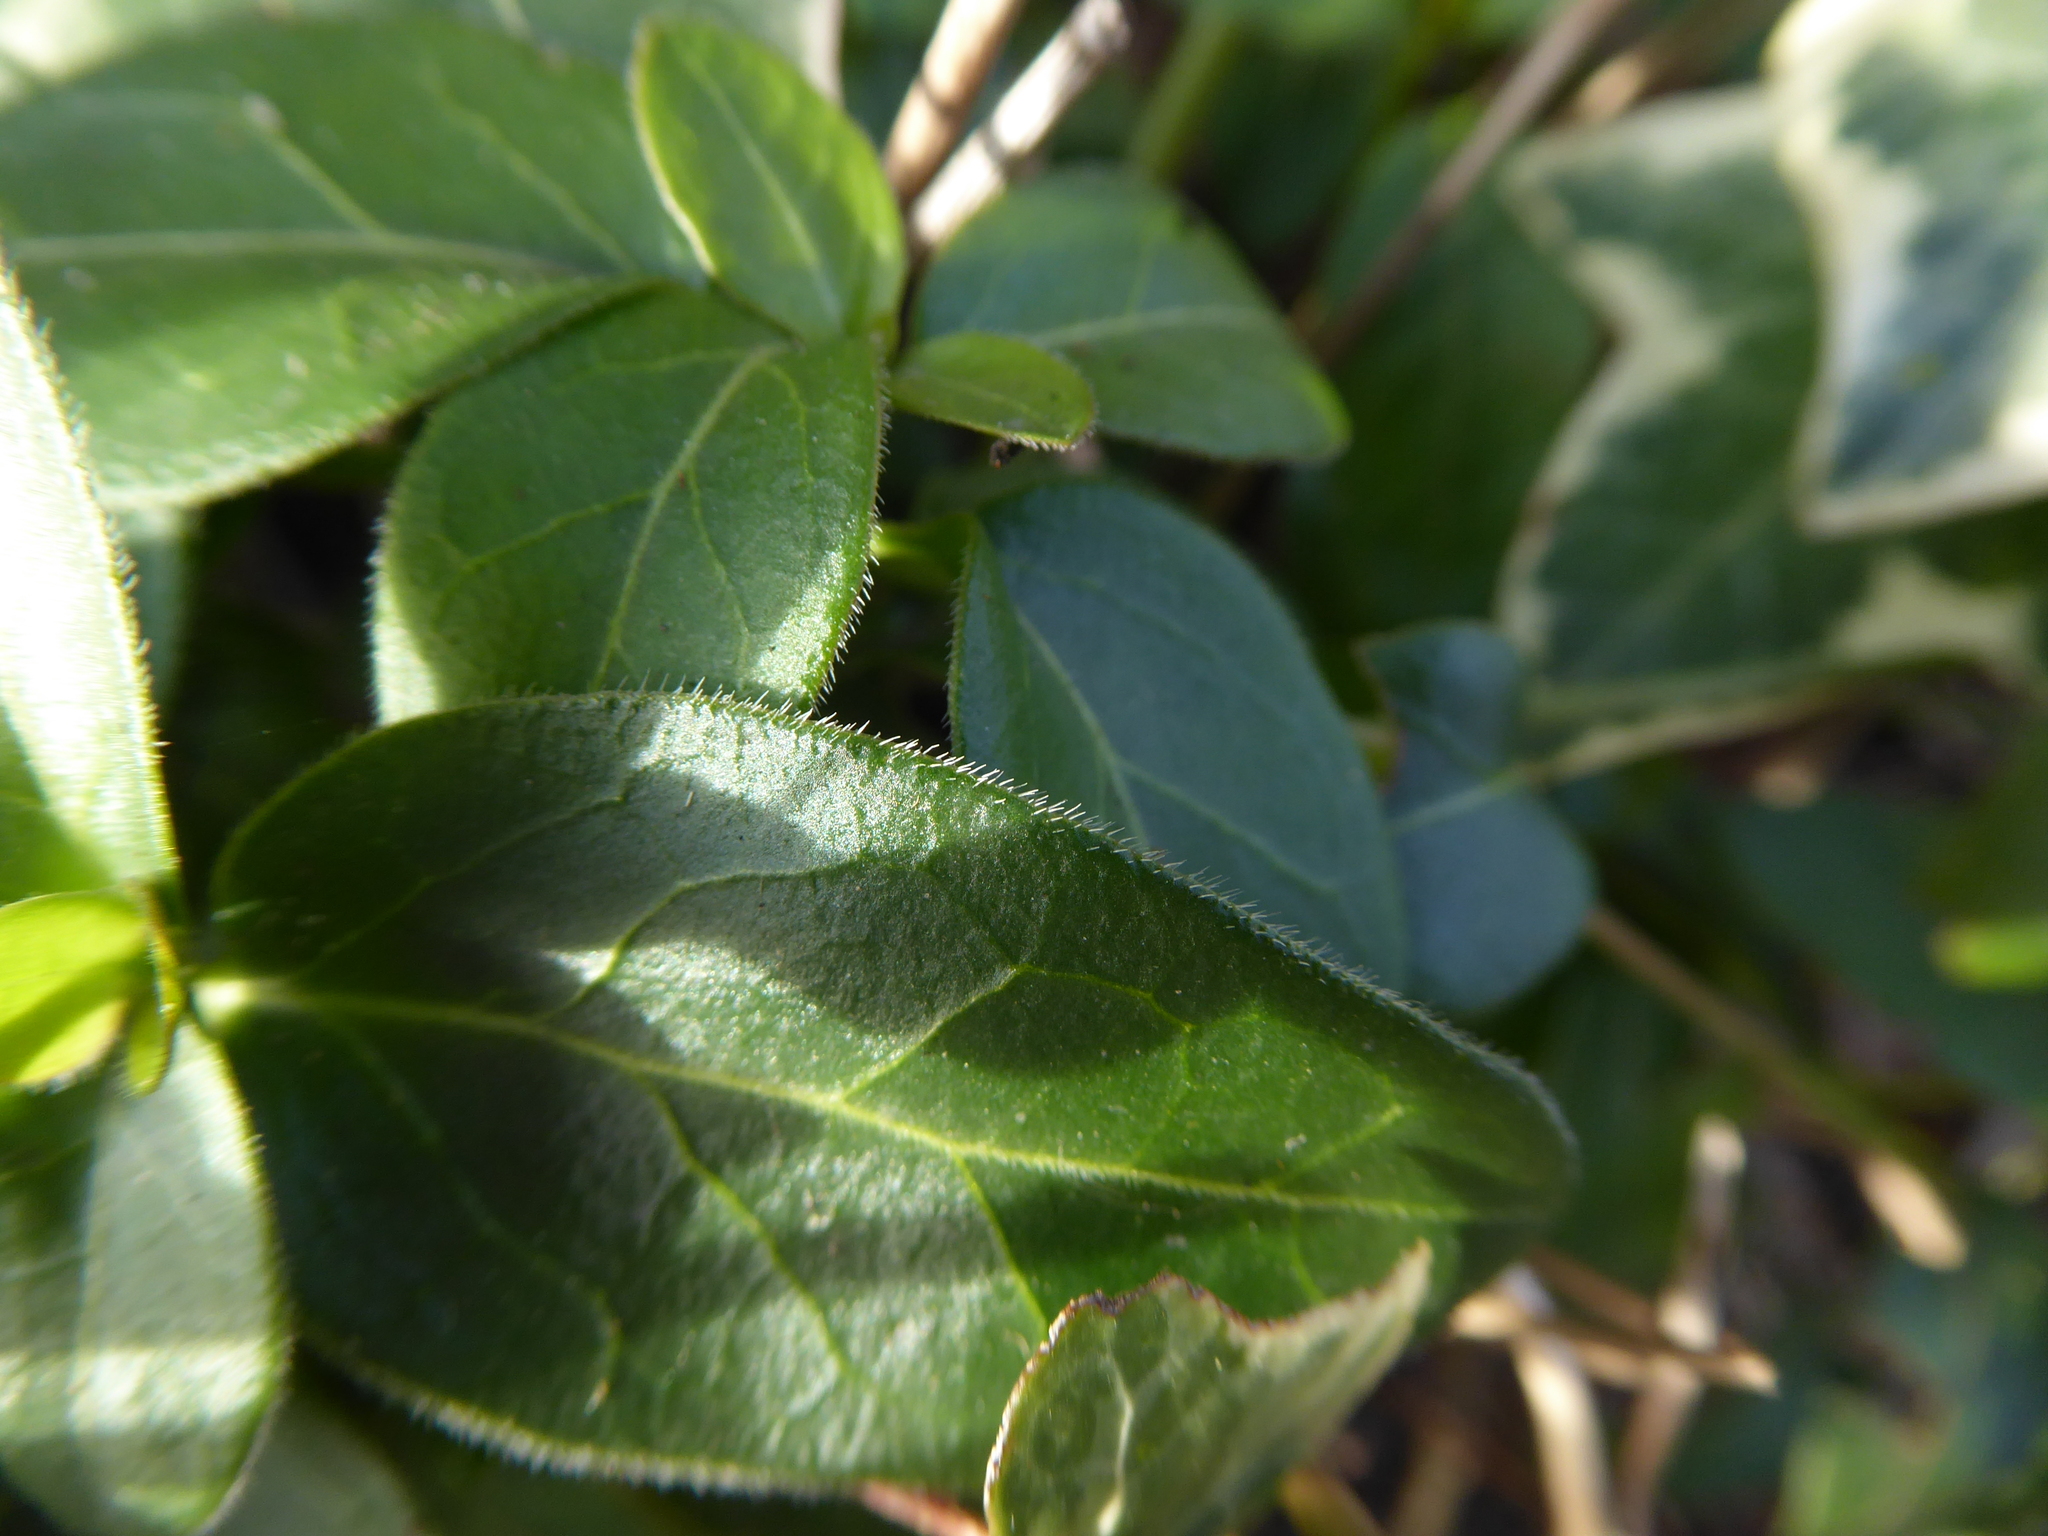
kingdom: Plantae
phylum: Tracheophyta
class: Magnoliopsida
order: Gentianales
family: Apocynaceae
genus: Vinca
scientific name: Vinca major
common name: Greater periwinkle
